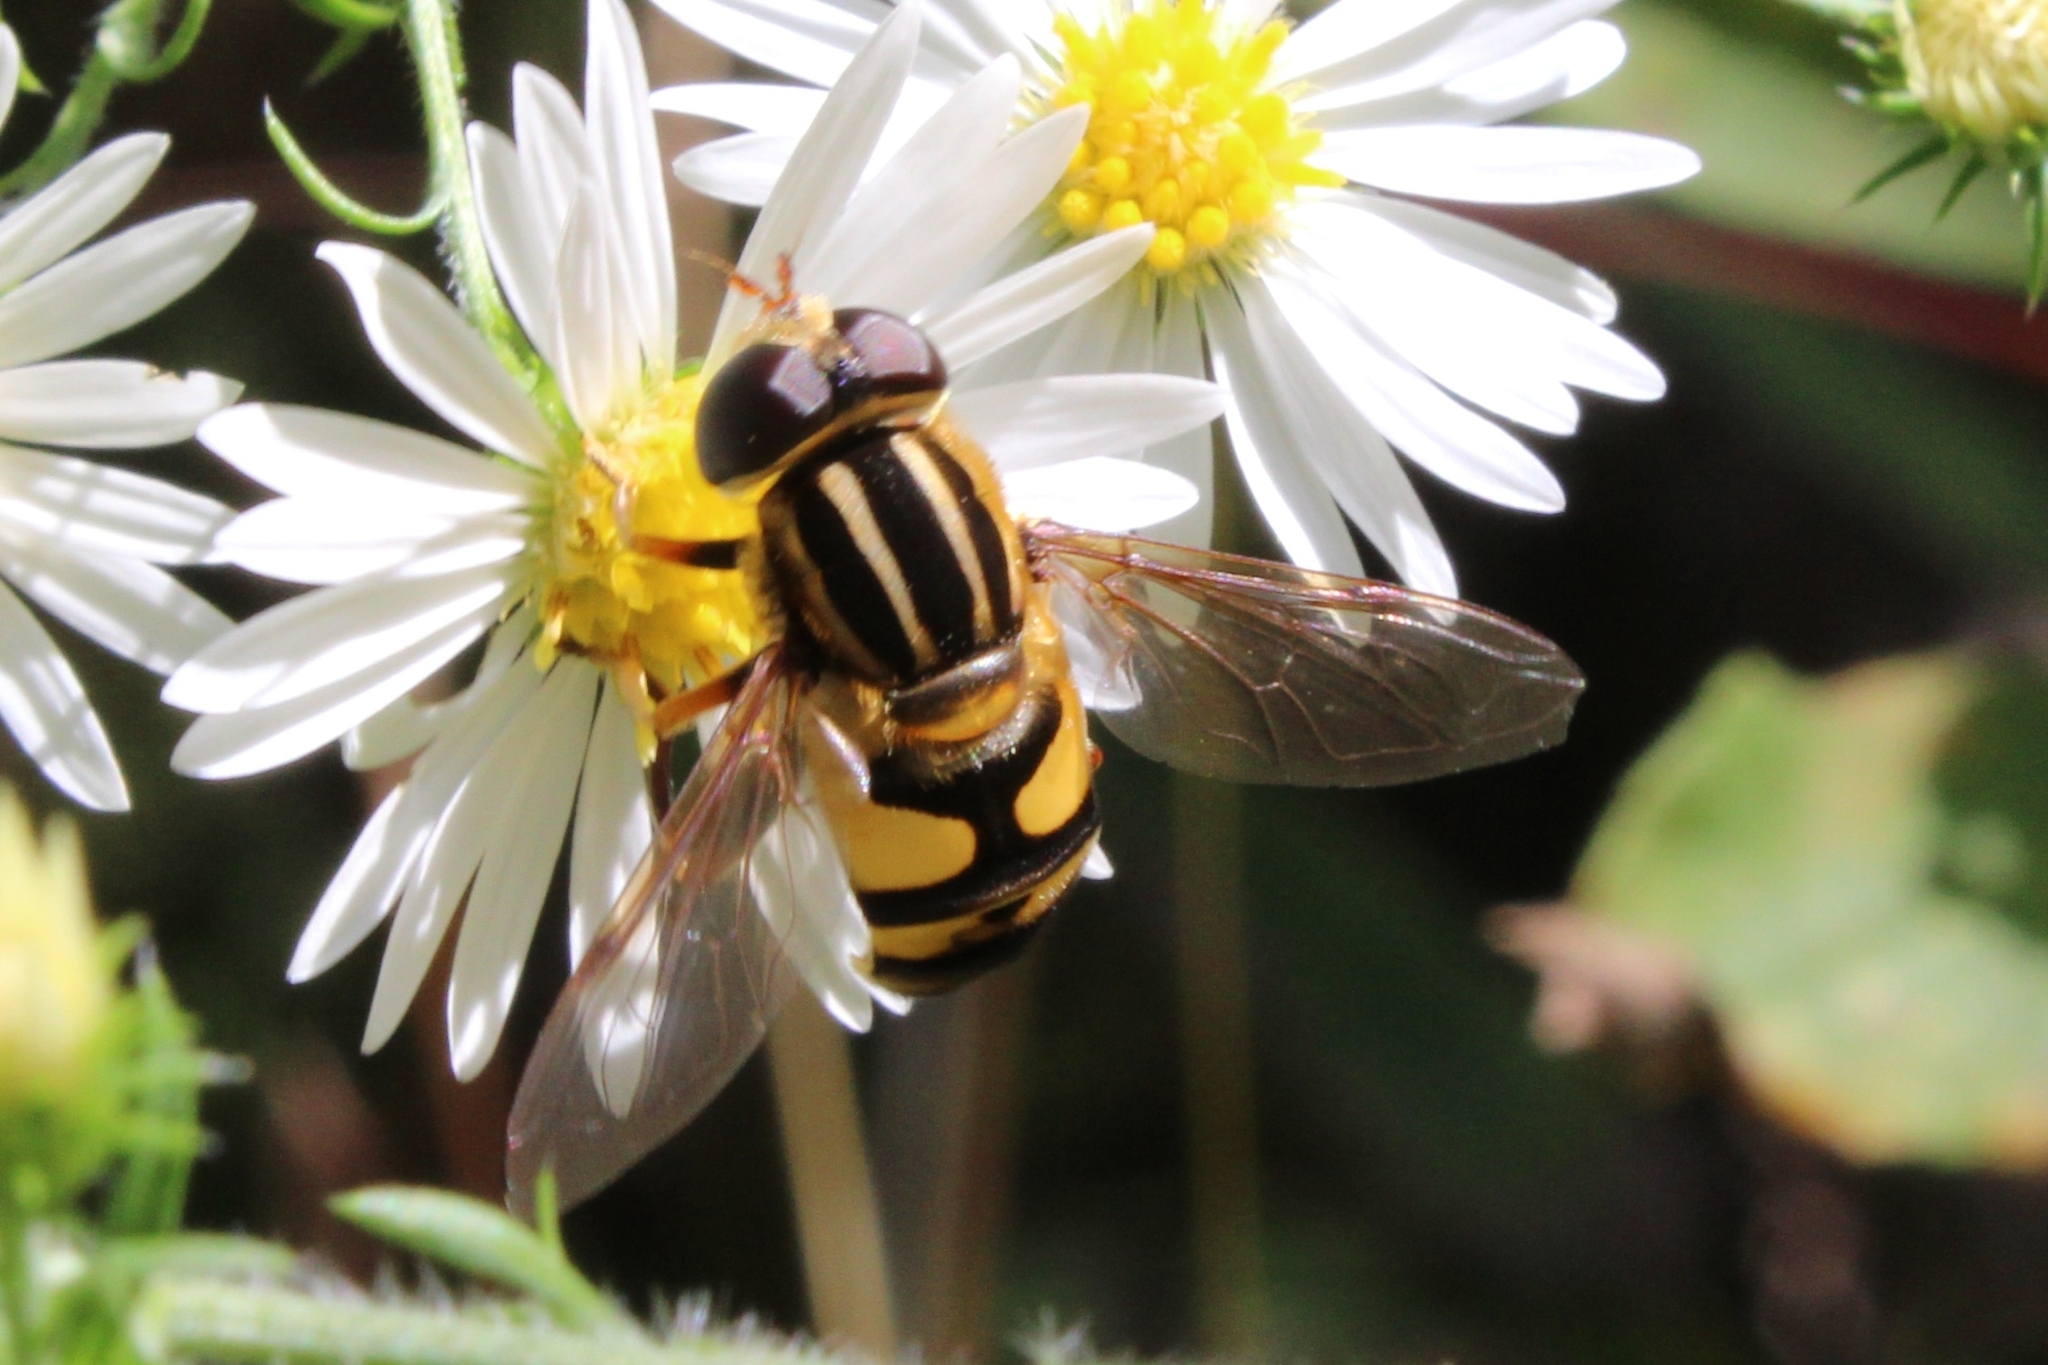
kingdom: Animalia
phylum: Arthropoda
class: Insecta
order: Diptera
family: Syrphidae
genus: Helophilus
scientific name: Helophilus fasciatus
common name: Narrow-headed marsh fly
